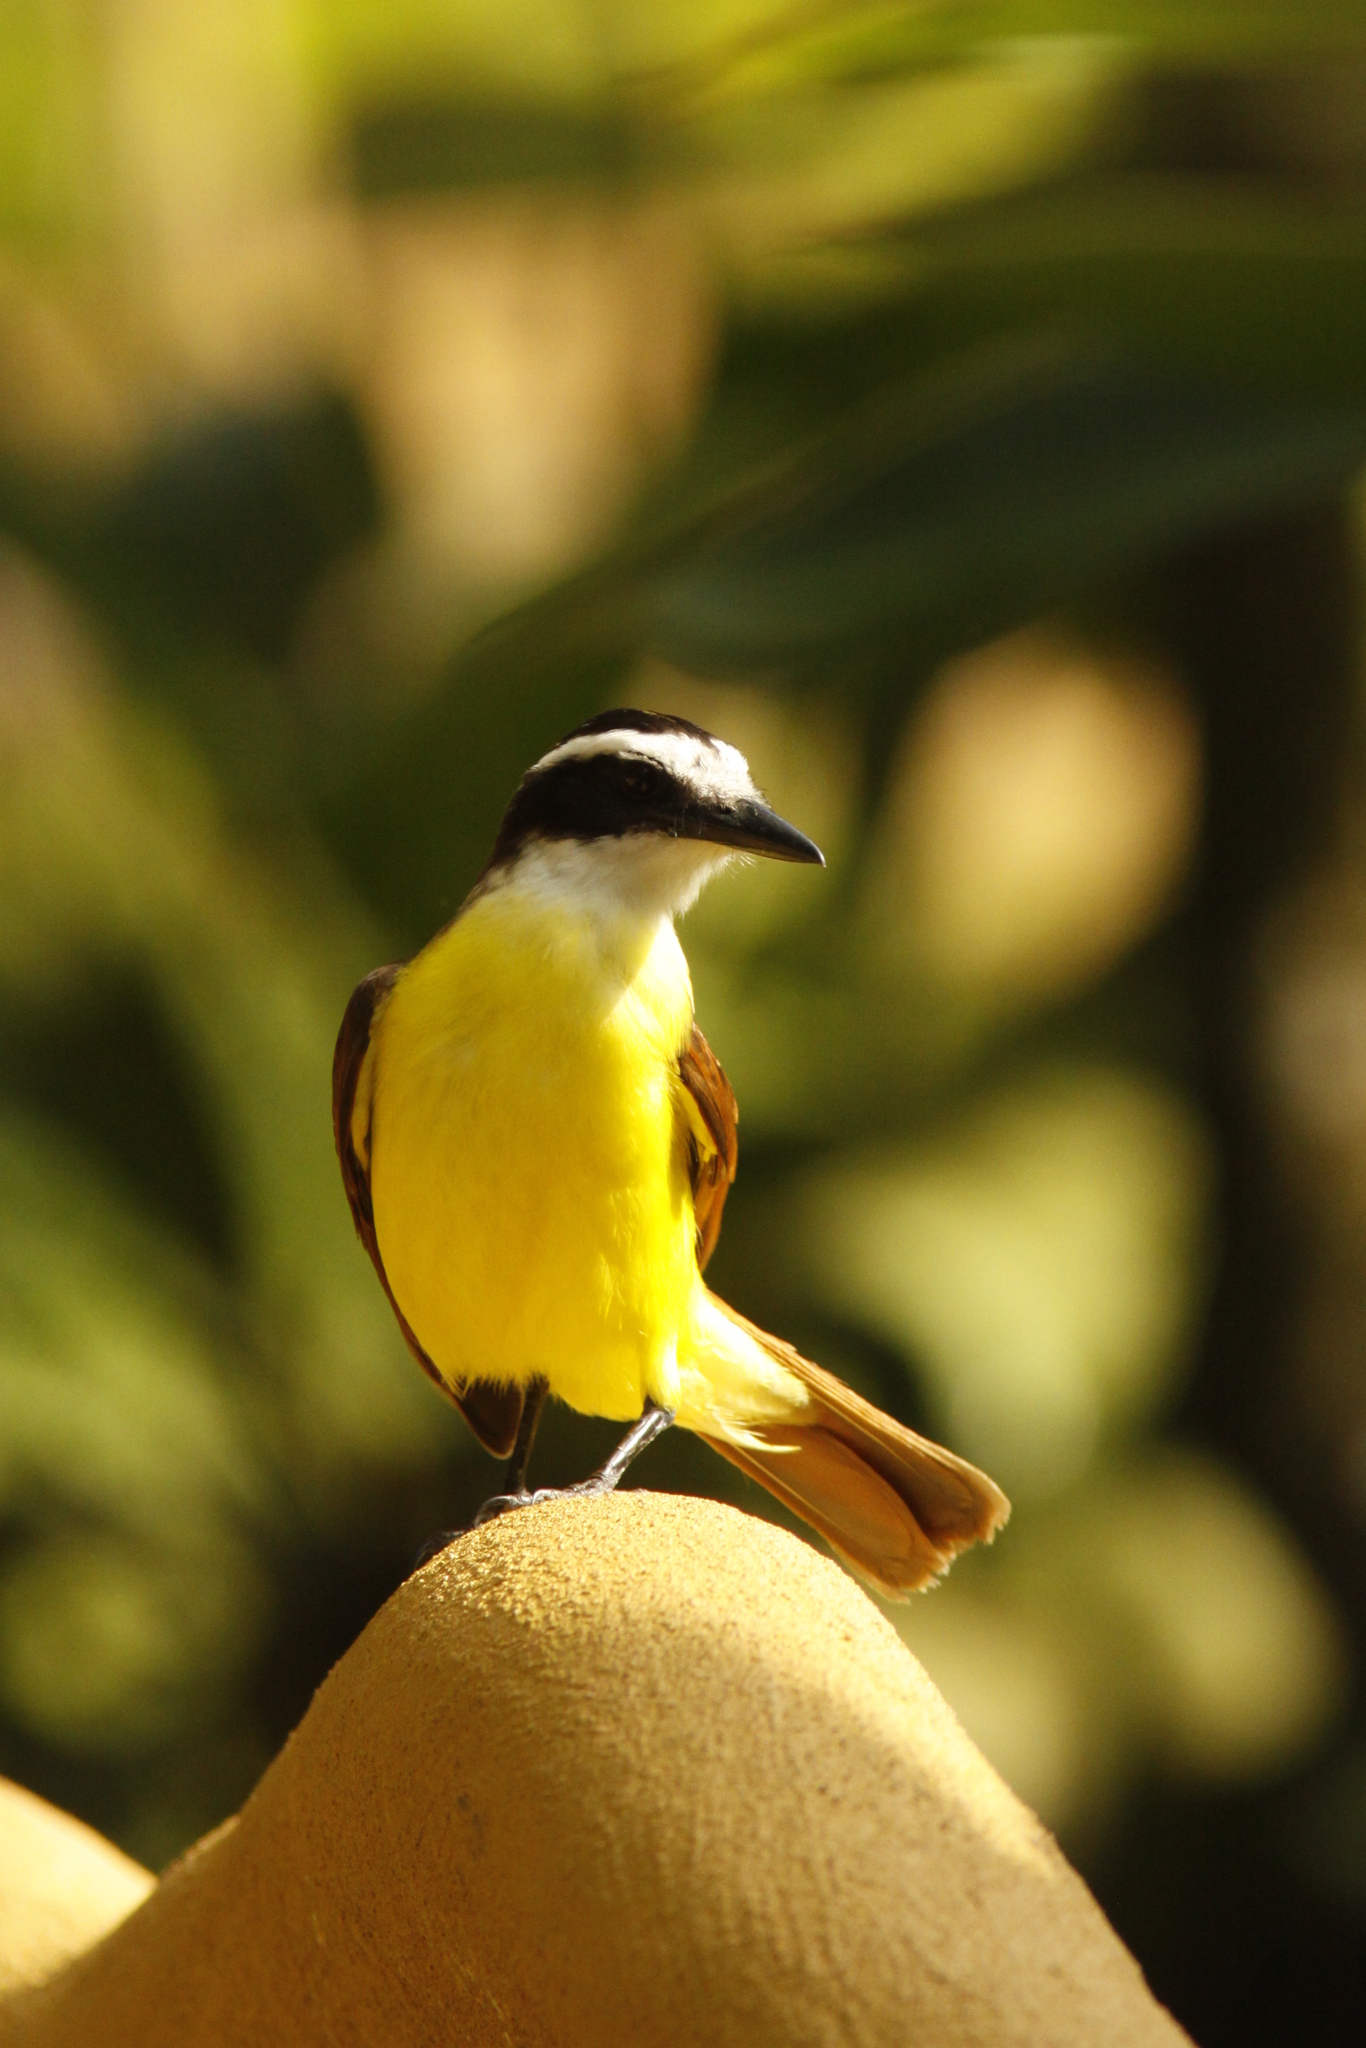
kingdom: Animalia
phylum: Chordata
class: Aves
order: Passeriformes
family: Tyrannidae
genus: Pitangus
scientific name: Pitangus sulphuratus
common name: Great kiskadee
